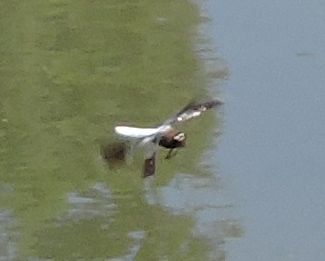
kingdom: Animalia
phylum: Arthropoda
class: Insecta
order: Odonata
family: Libellulidae
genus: Plathemis
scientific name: Plathemis lydia
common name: Common whitetail
